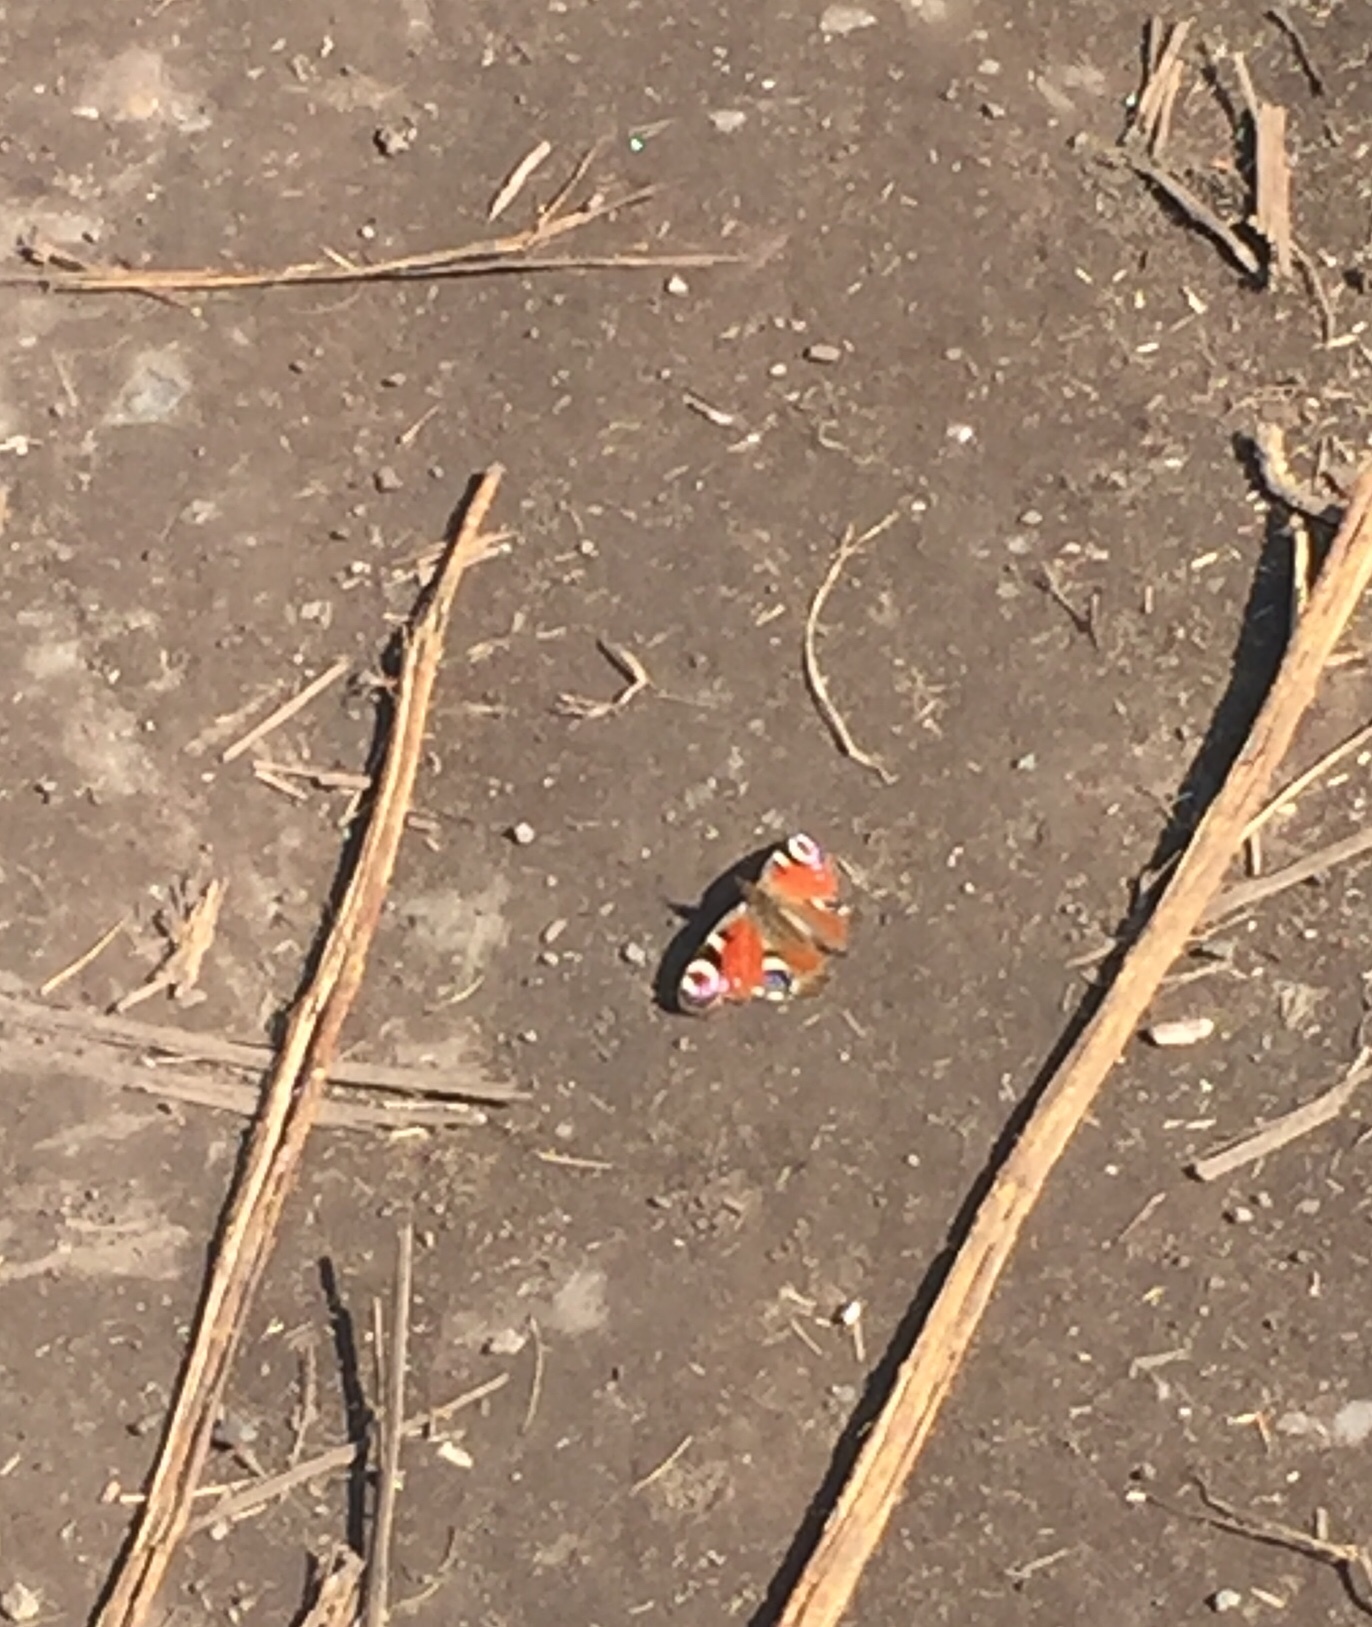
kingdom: Animalia
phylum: Arthropoda
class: Insecta
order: Lepidoptera
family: Nymphalidae
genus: Aglais
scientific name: Aglais io
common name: Peacock
